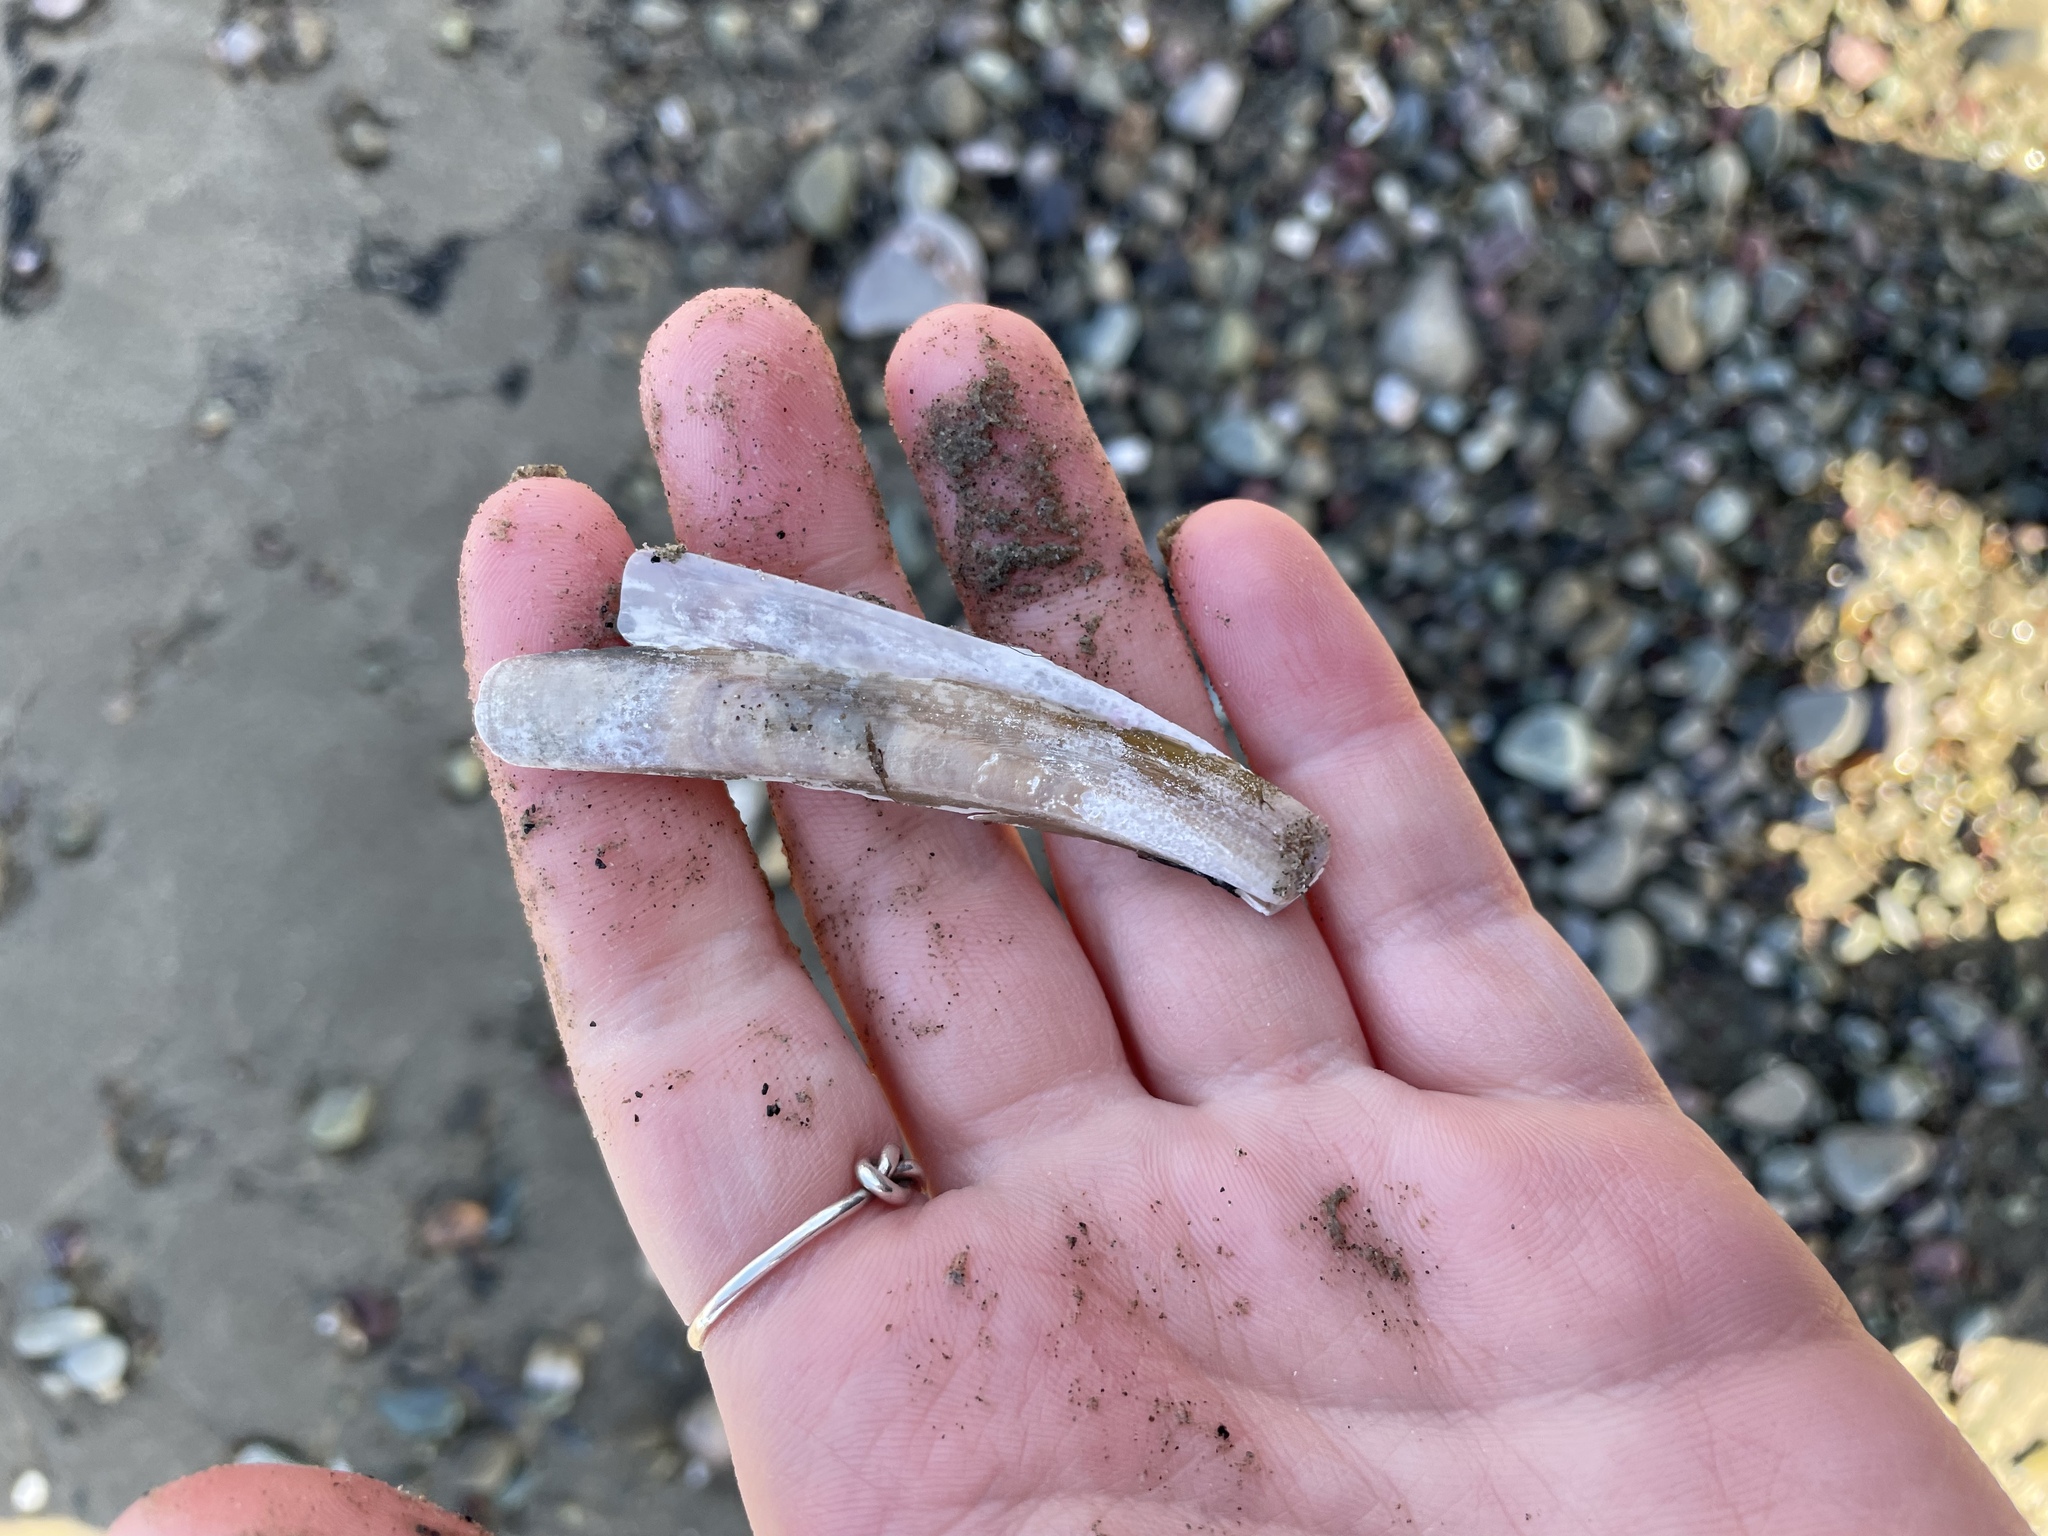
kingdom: Animalia
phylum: Mollusca
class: Bivalvia
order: Adapedonta
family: Pharidae
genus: Ensis
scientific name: Ensis leei
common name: American jack knife clam
